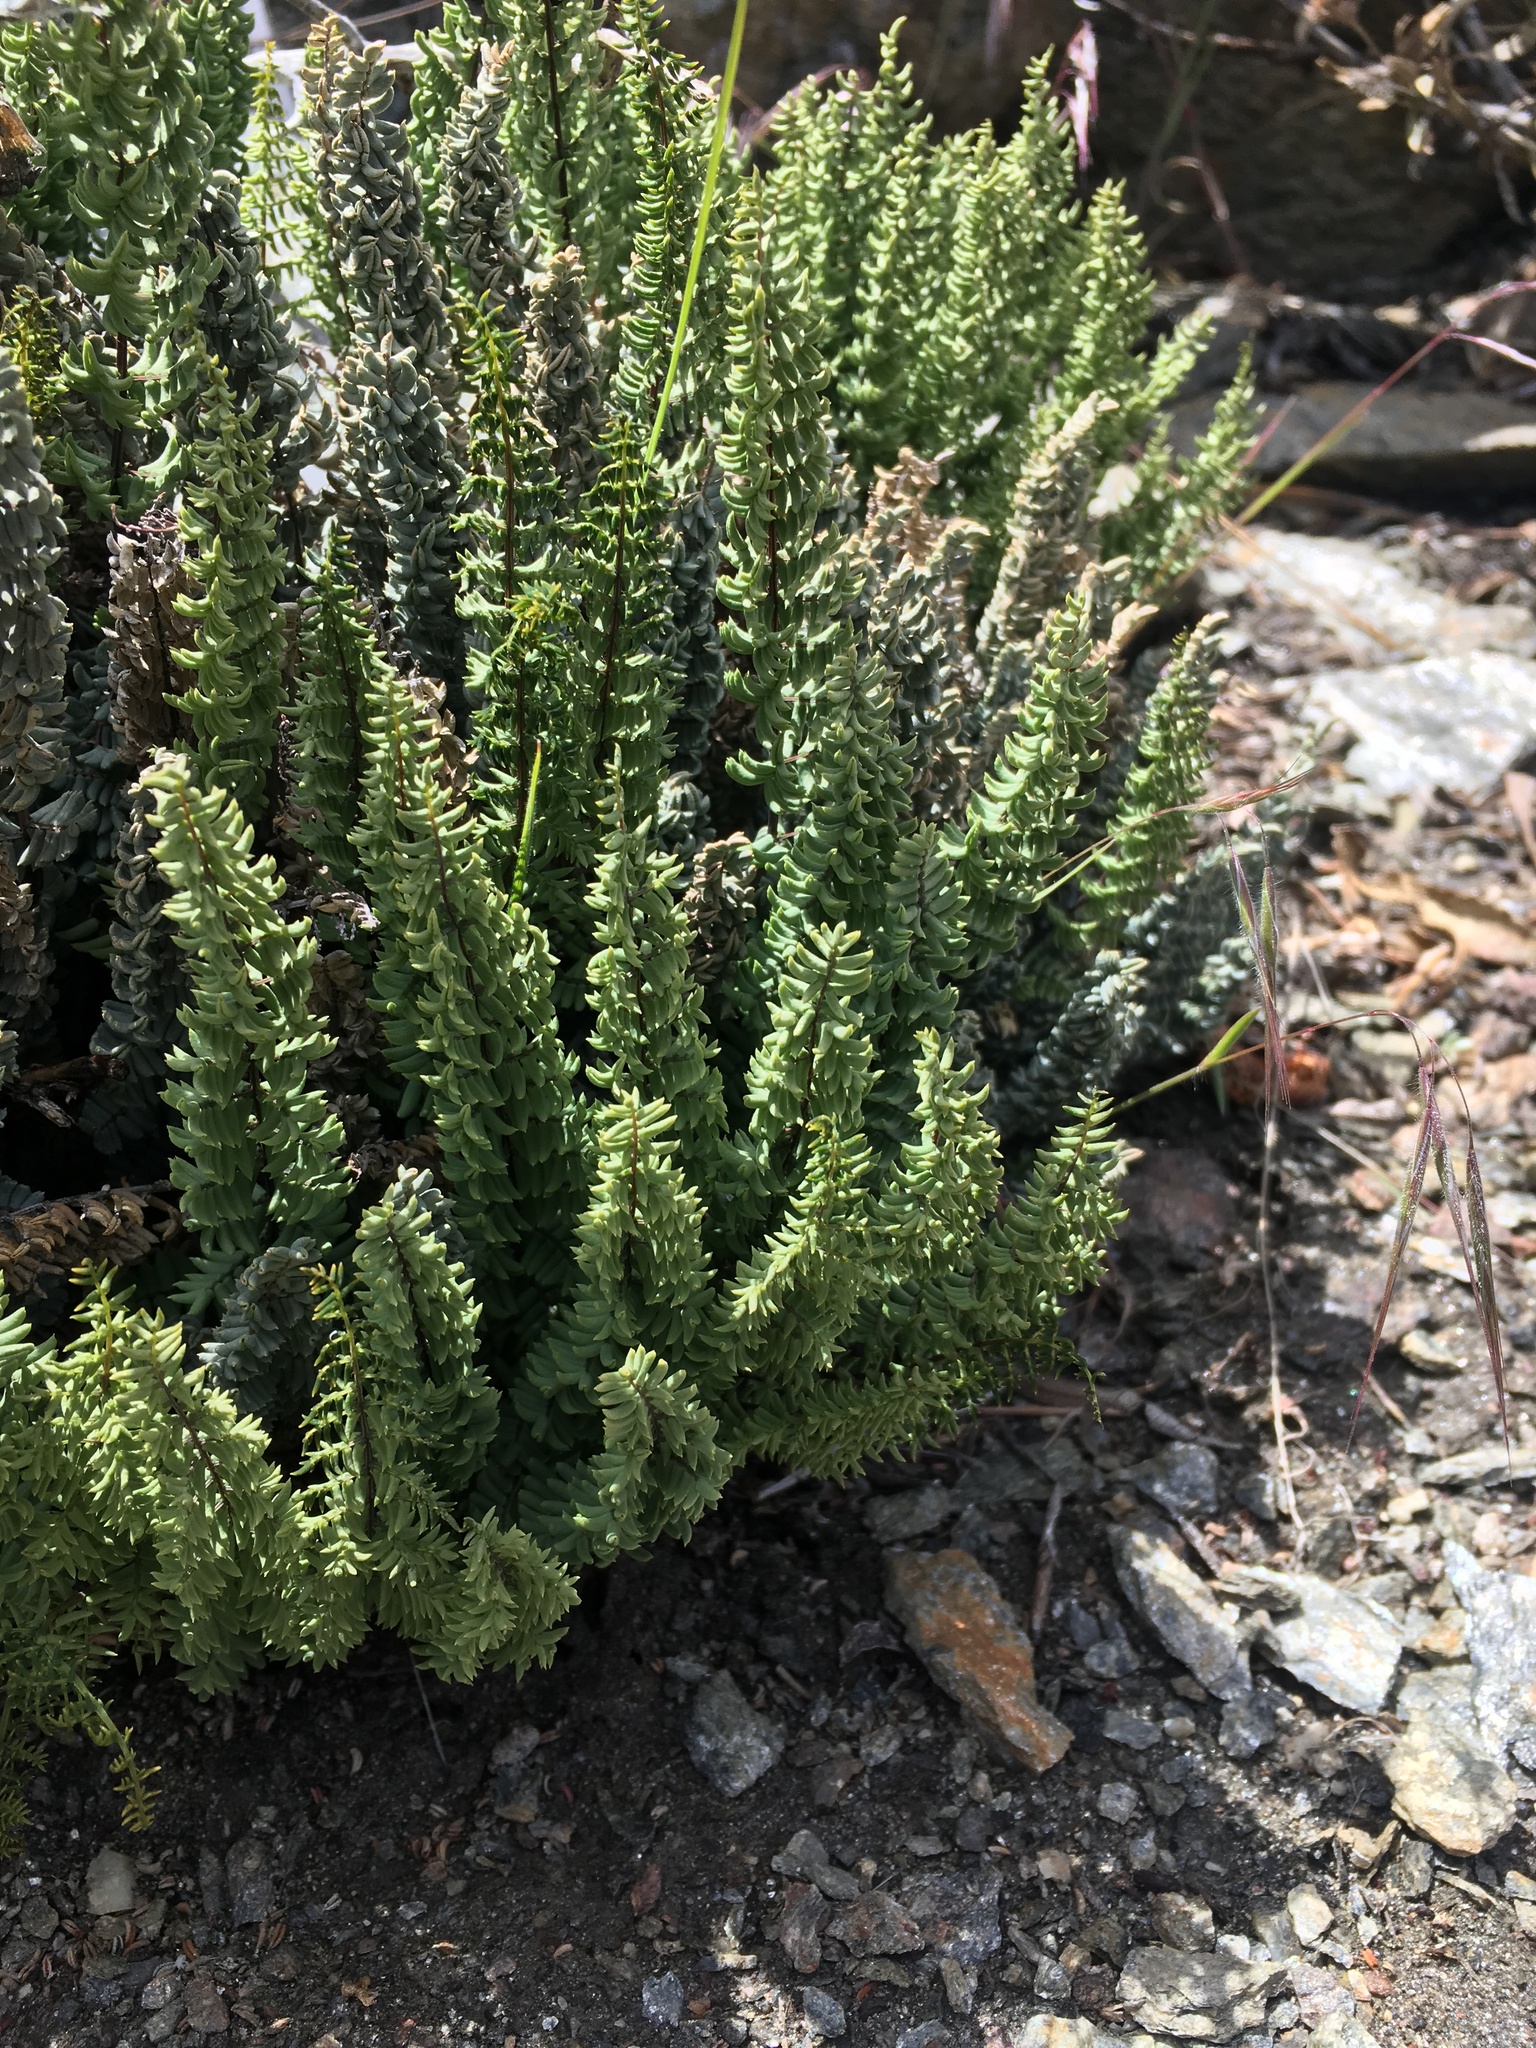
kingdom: Plantae
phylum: Tracheophyta
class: Polypodiopsida
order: Polypodiales
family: Pteridaceae
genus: Pellaea
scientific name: Pellaea mucronata
